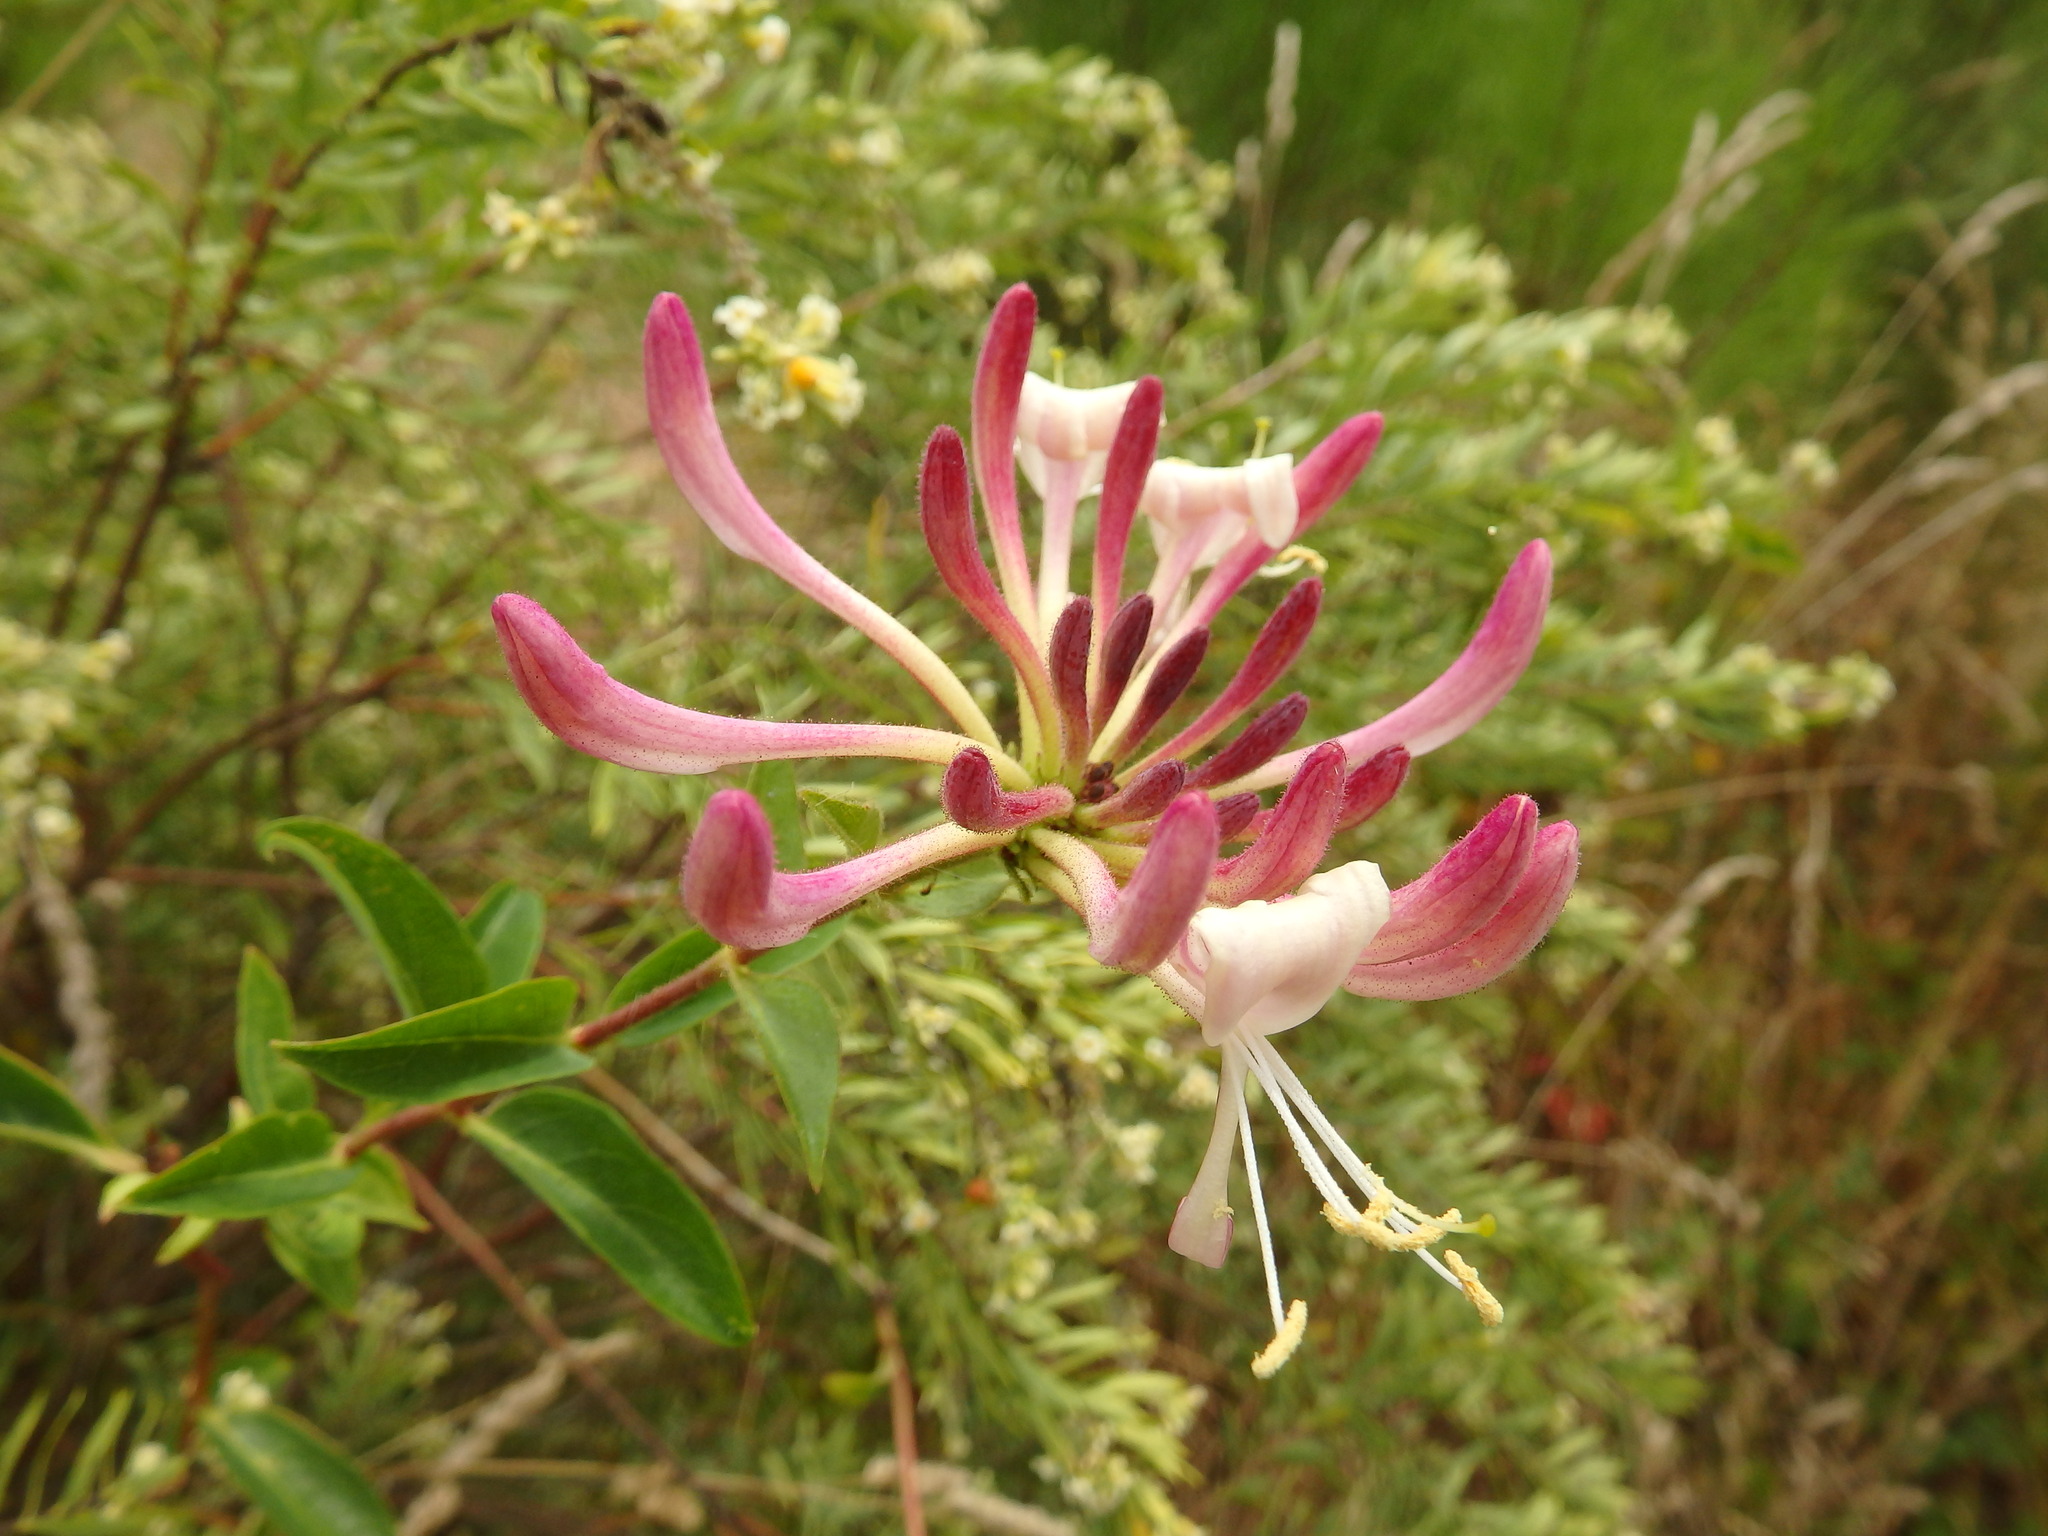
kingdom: Plantae
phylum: Tracheophyta
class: Magnoliopsida
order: Dipsacales
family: Caprifoliaceae
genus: Lonicera
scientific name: Lonicera periclymenum
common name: European honeysuckle
